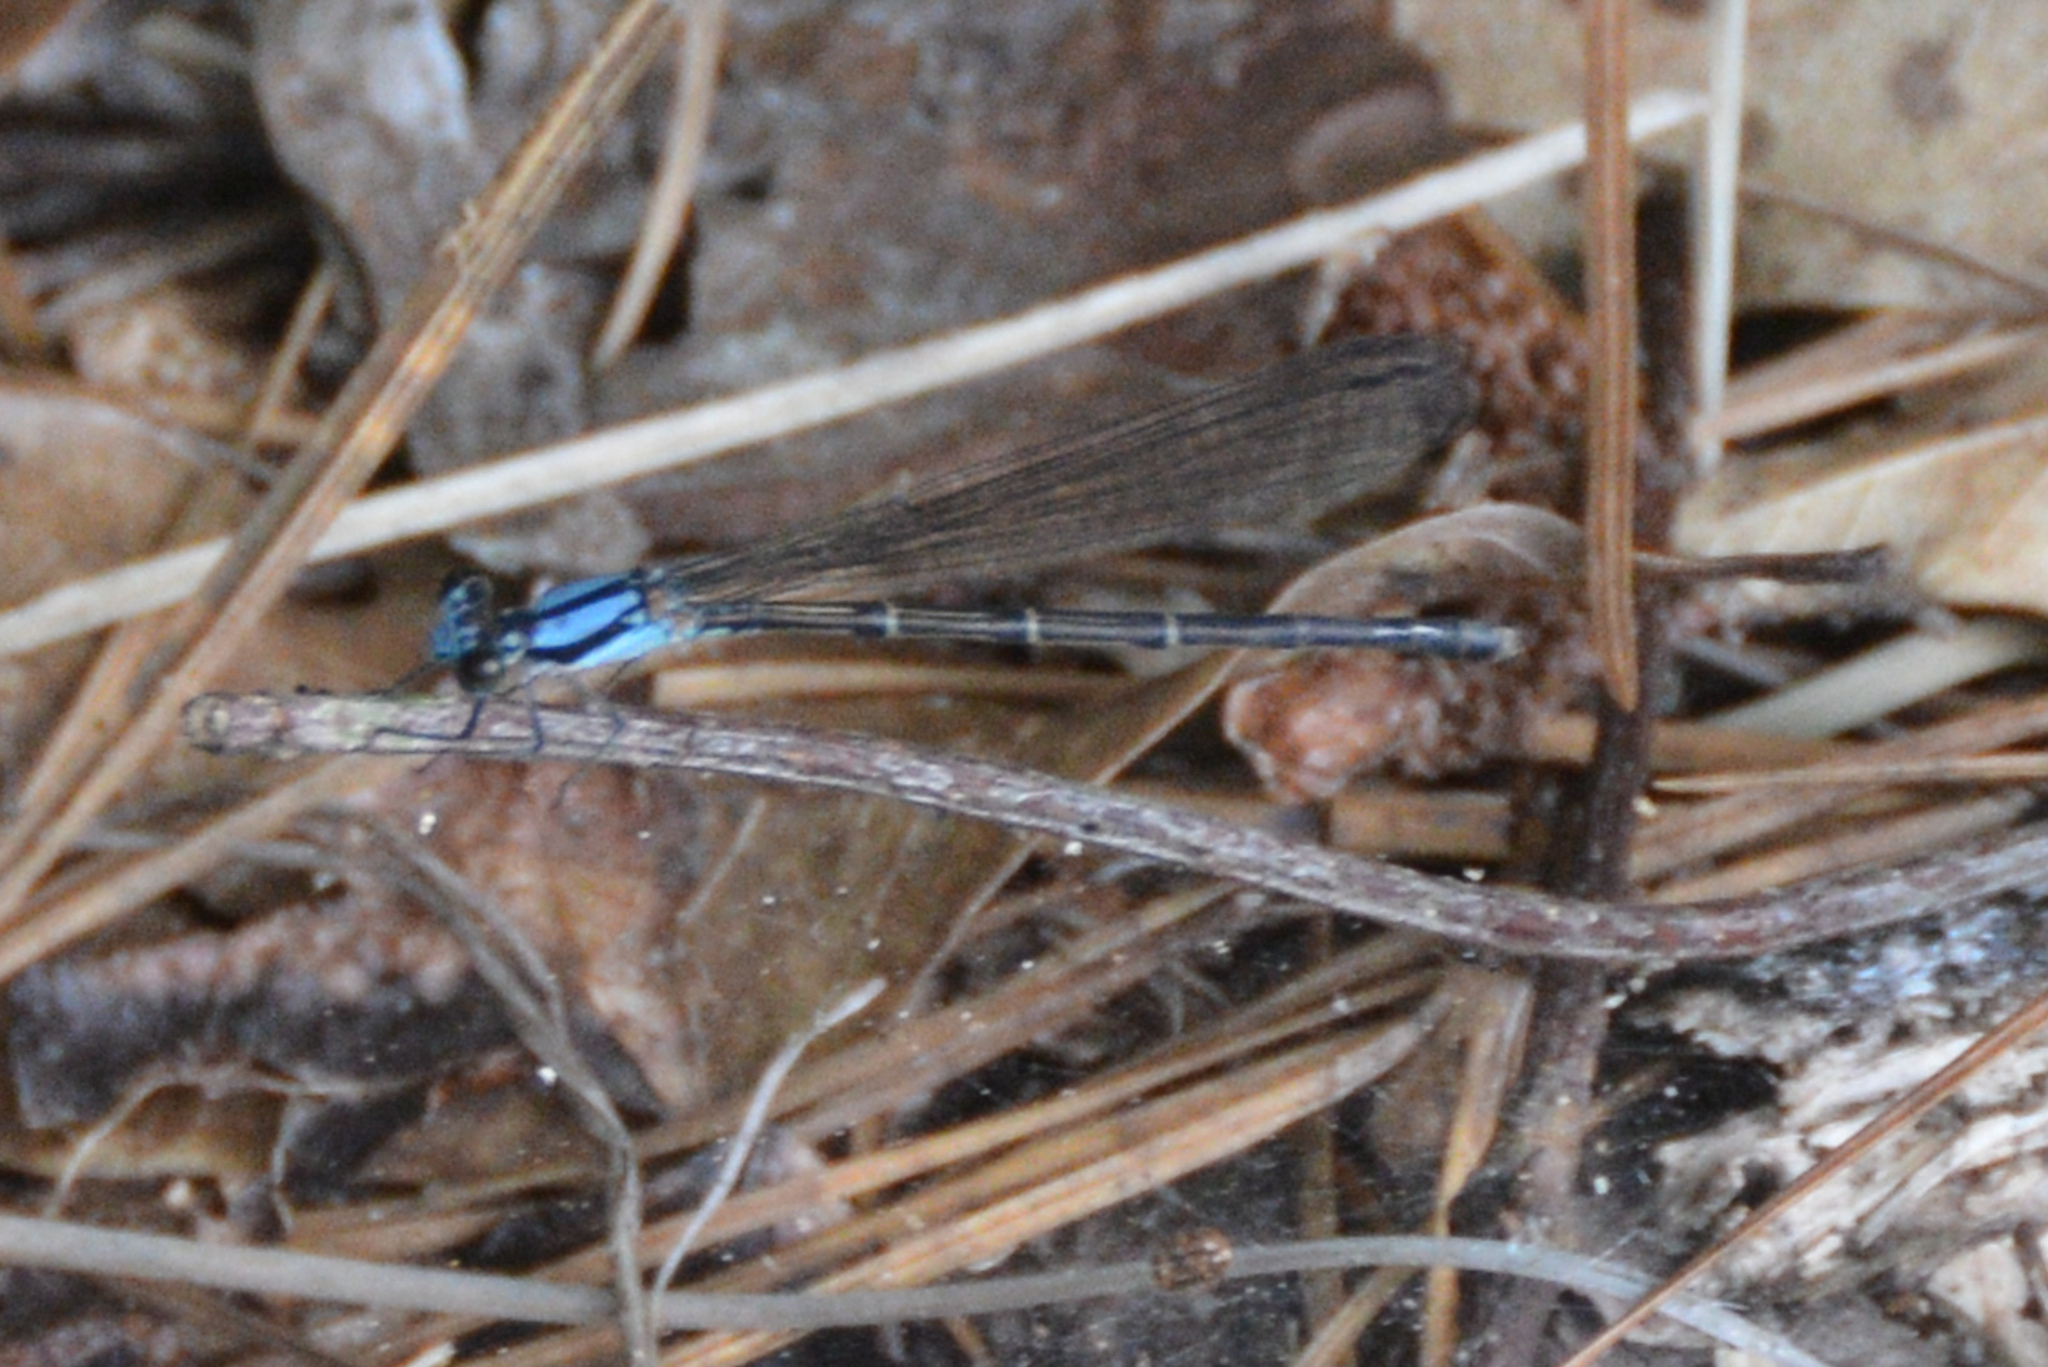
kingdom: Animalia
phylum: Arthropoda
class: Insecta
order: Odonata
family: Coenagrionidae
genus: Argia
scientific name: Argia tibialis
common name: Blue-tipped dancer
